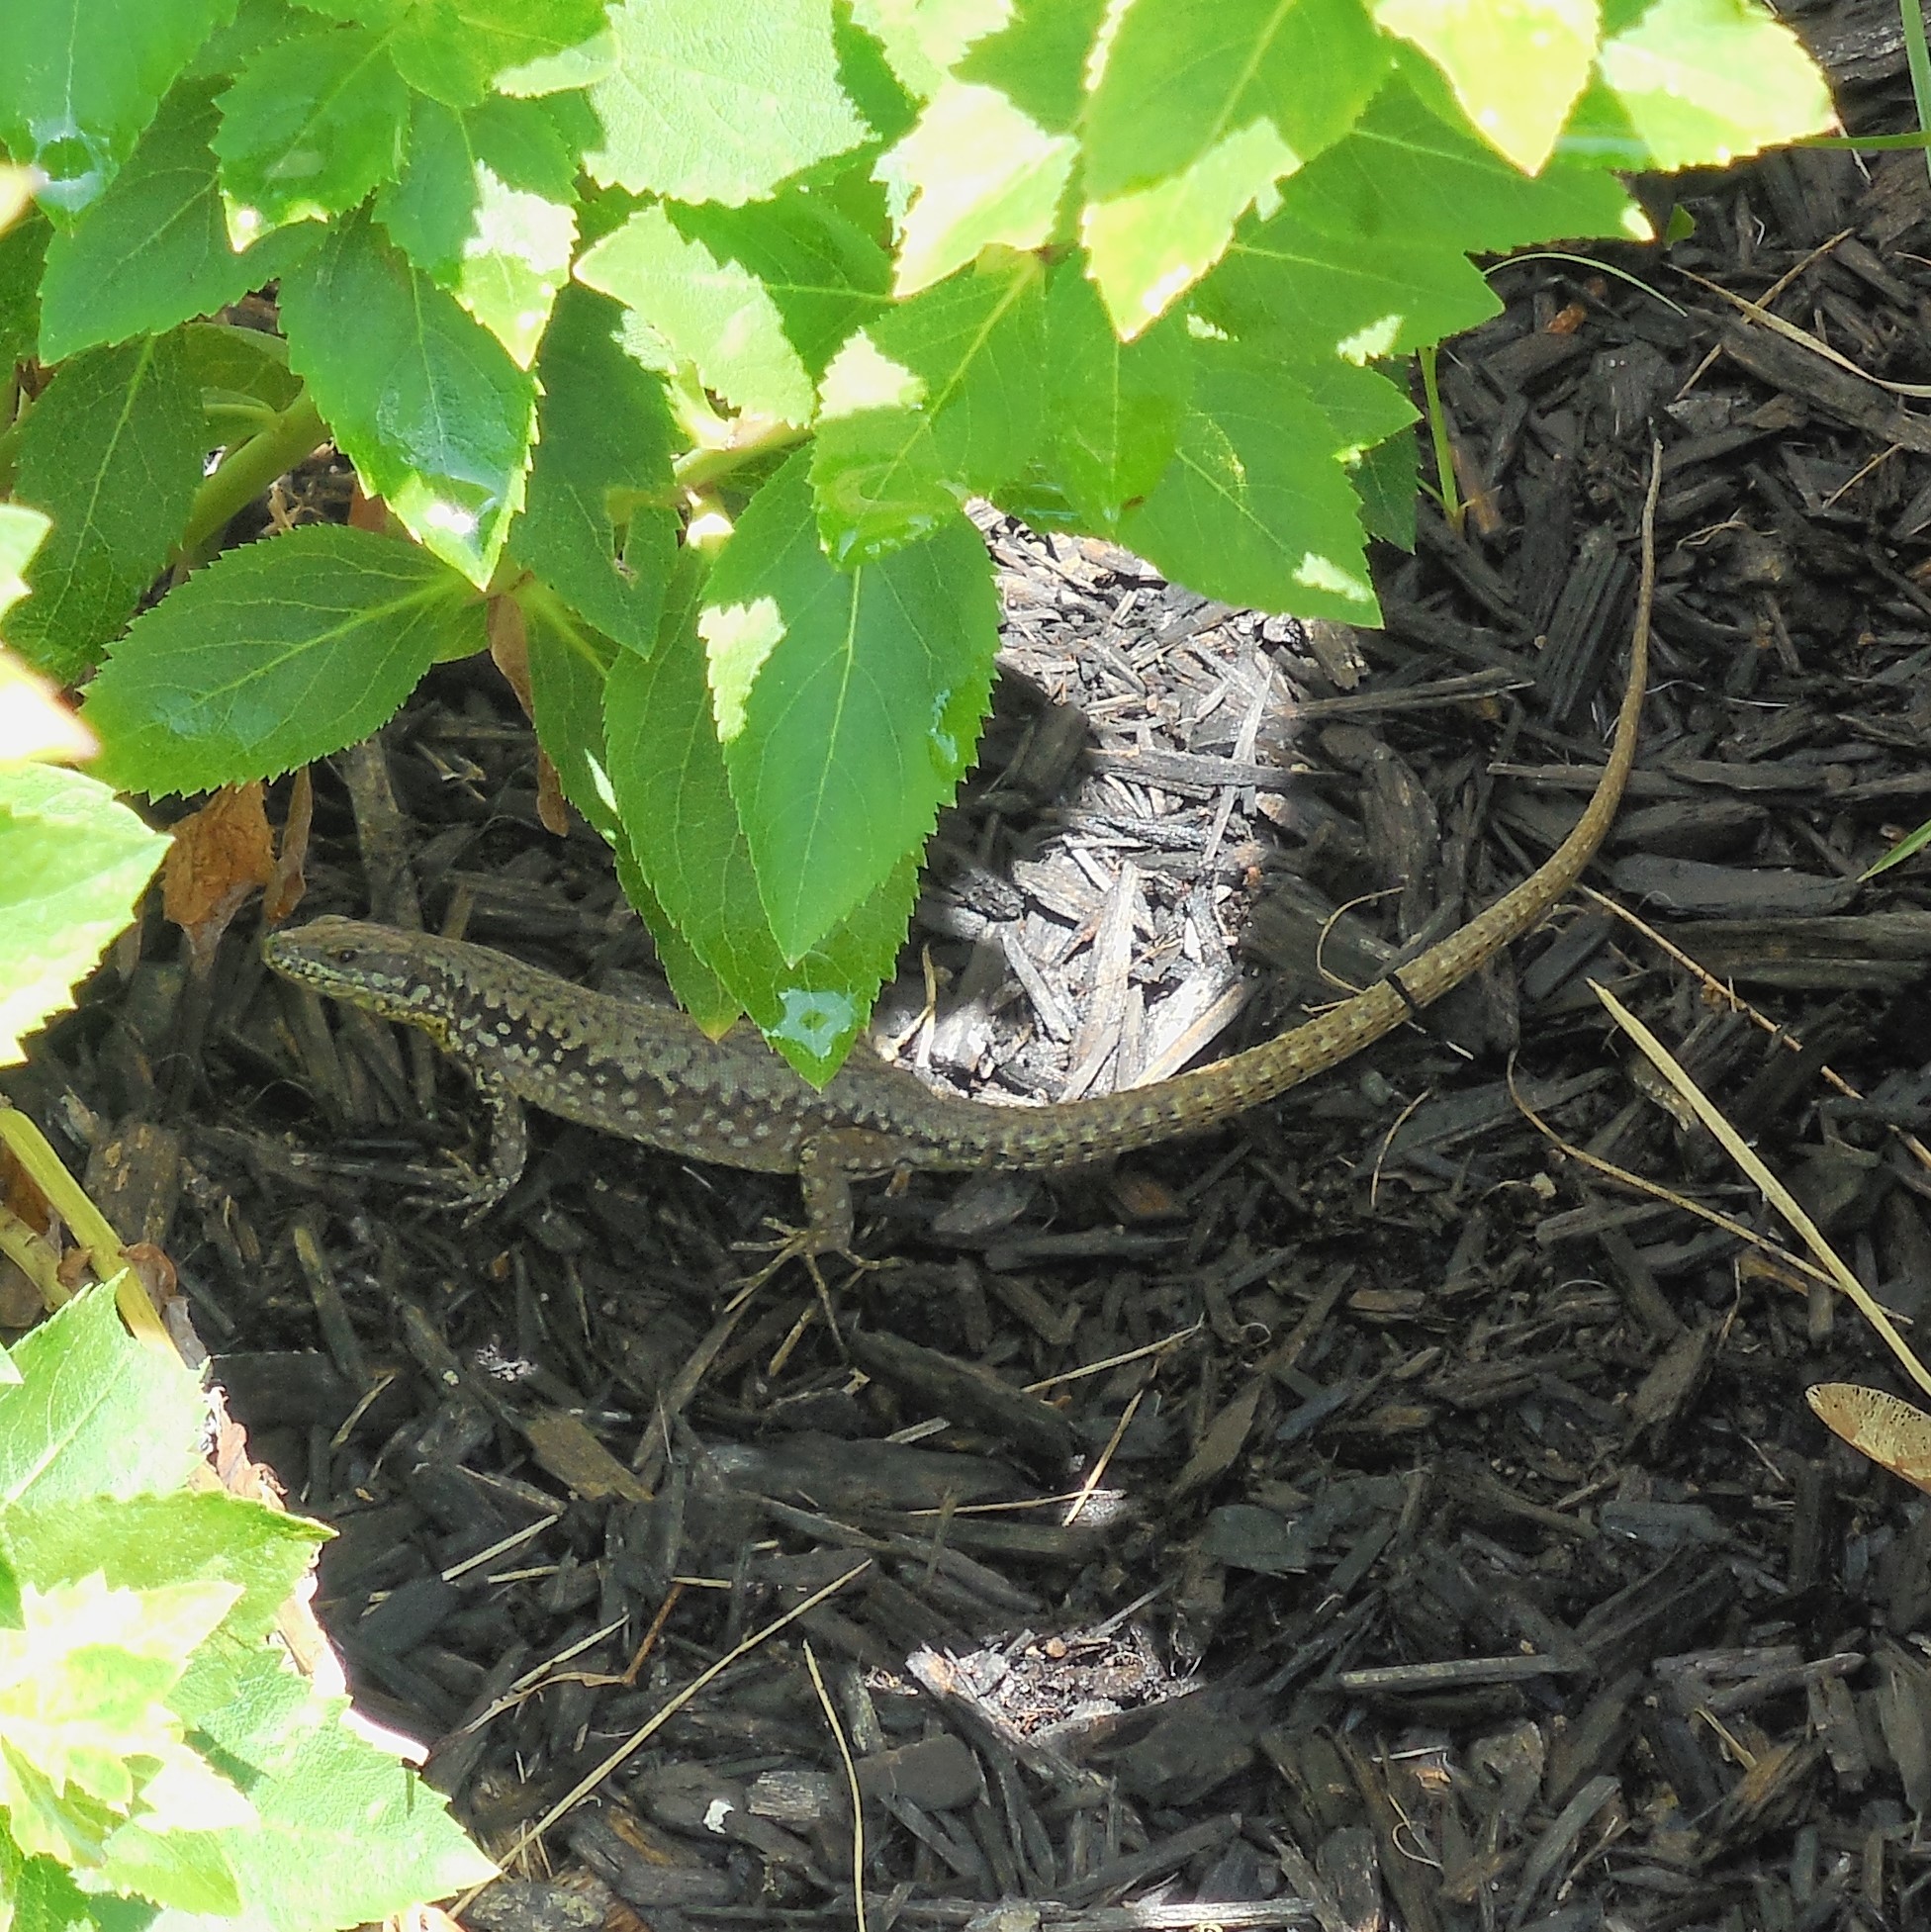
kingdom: Animalia
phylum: Chordata
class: Squamata
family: Lacertidae
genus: Podarcis
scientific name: Podarcis muralis
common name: Common wall lizard
